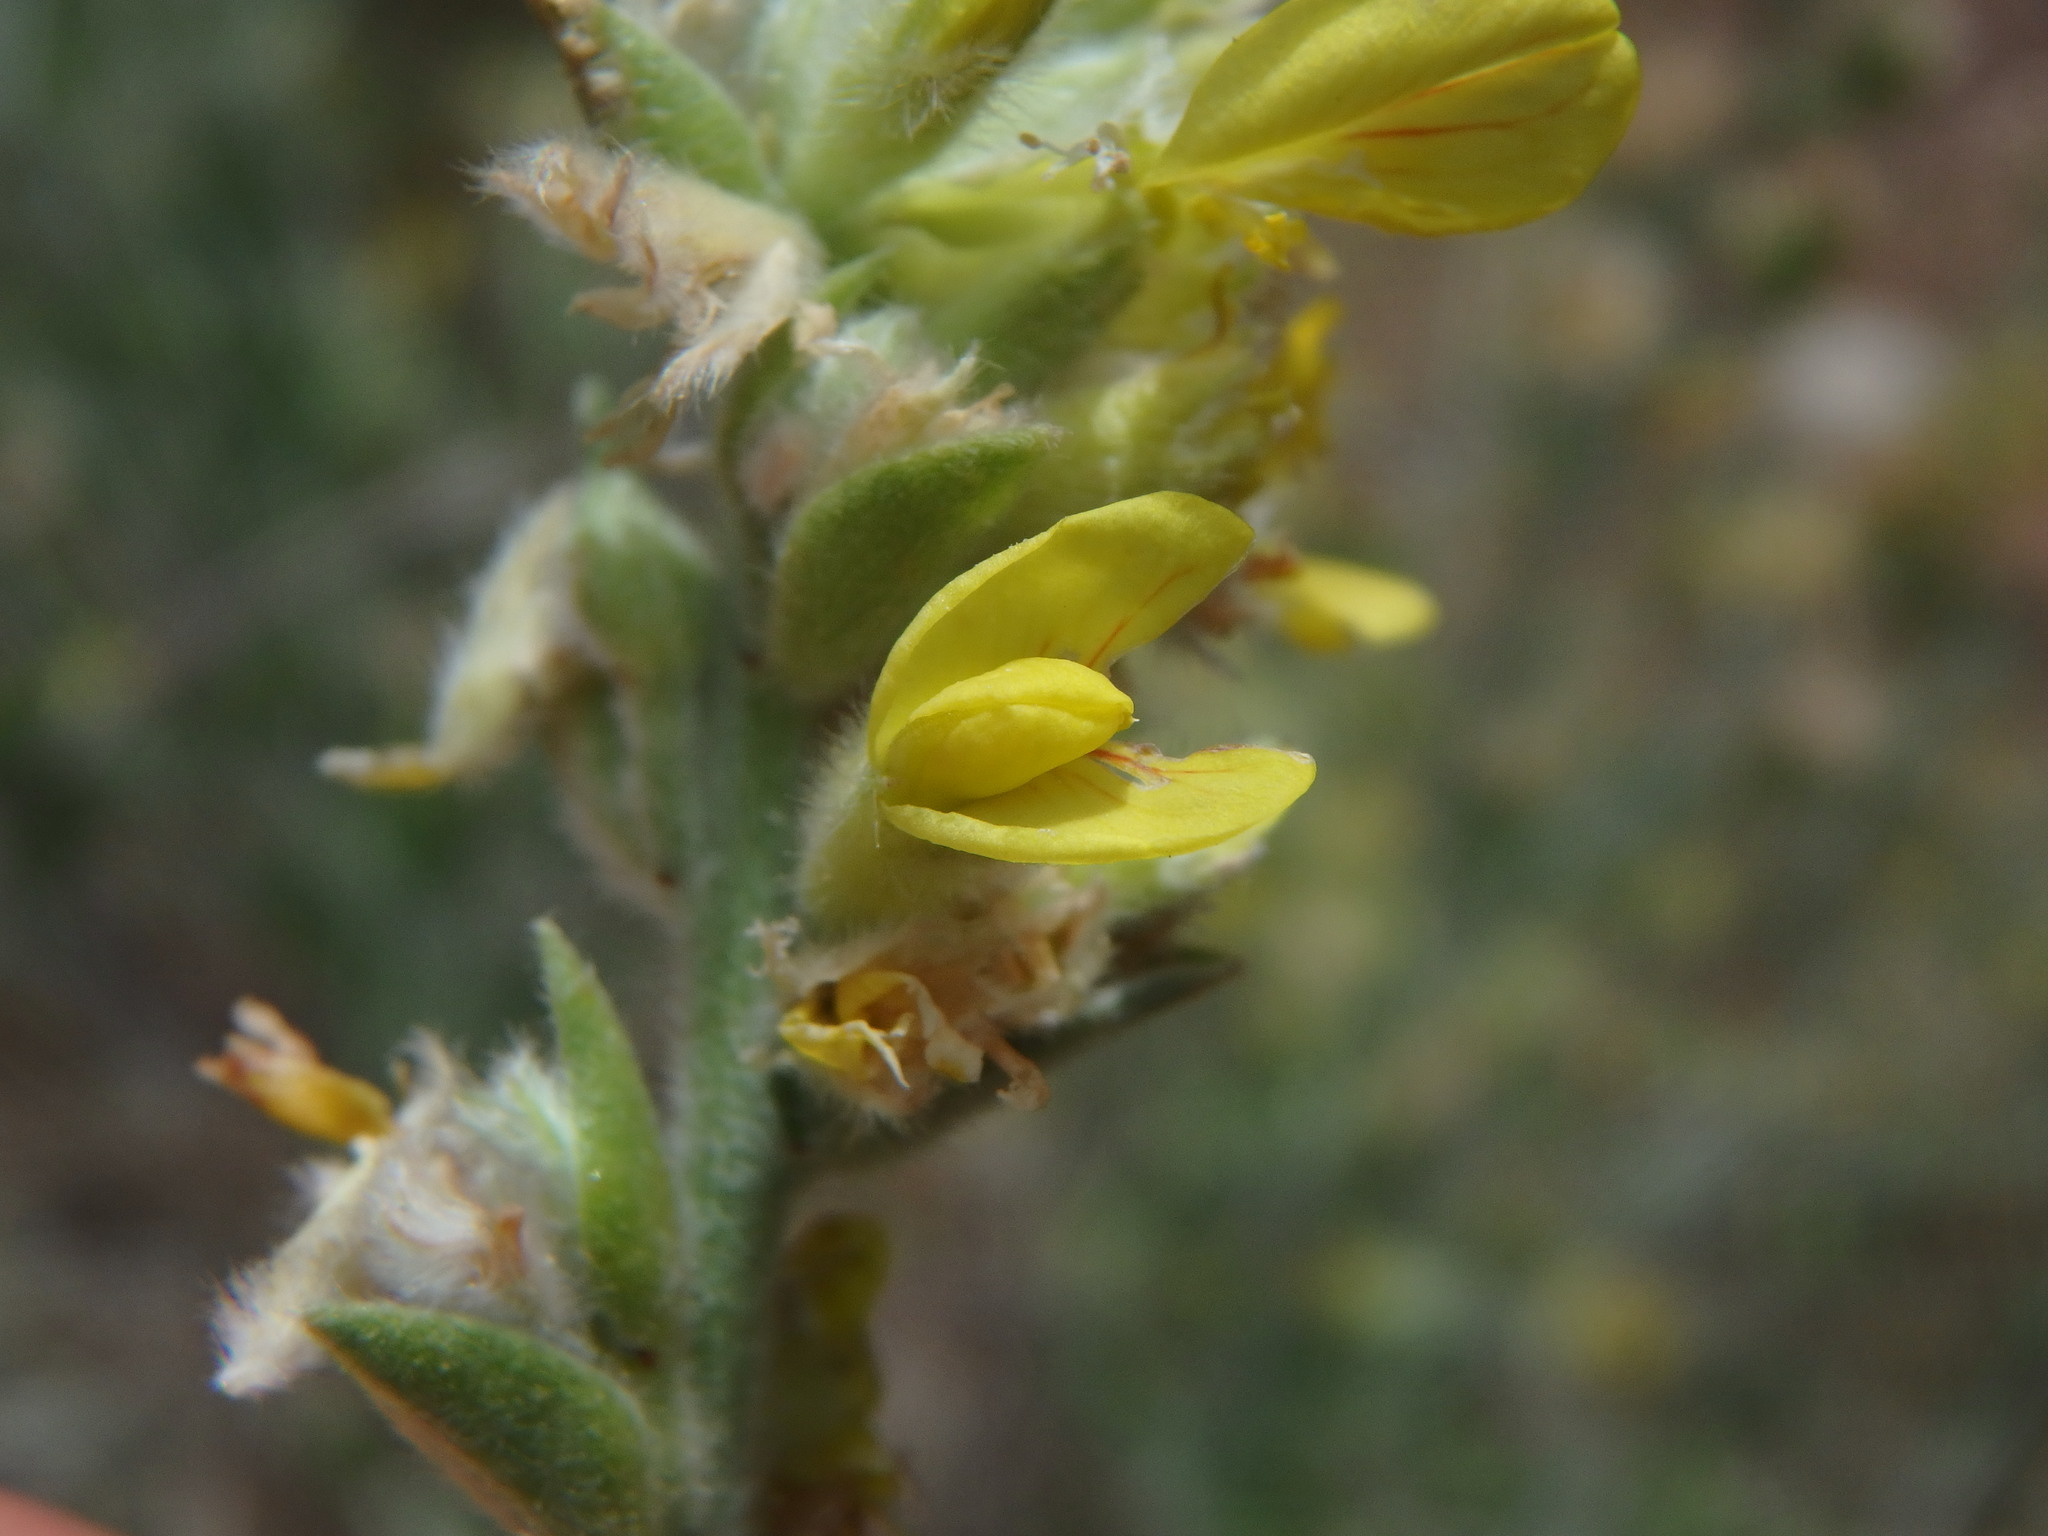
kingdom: Plantae
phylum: Tracheophyta
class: Magnoliopsida
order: Fabales
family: Fabaceae
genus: Anthyllis
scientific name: Anthyllis cytisoides
